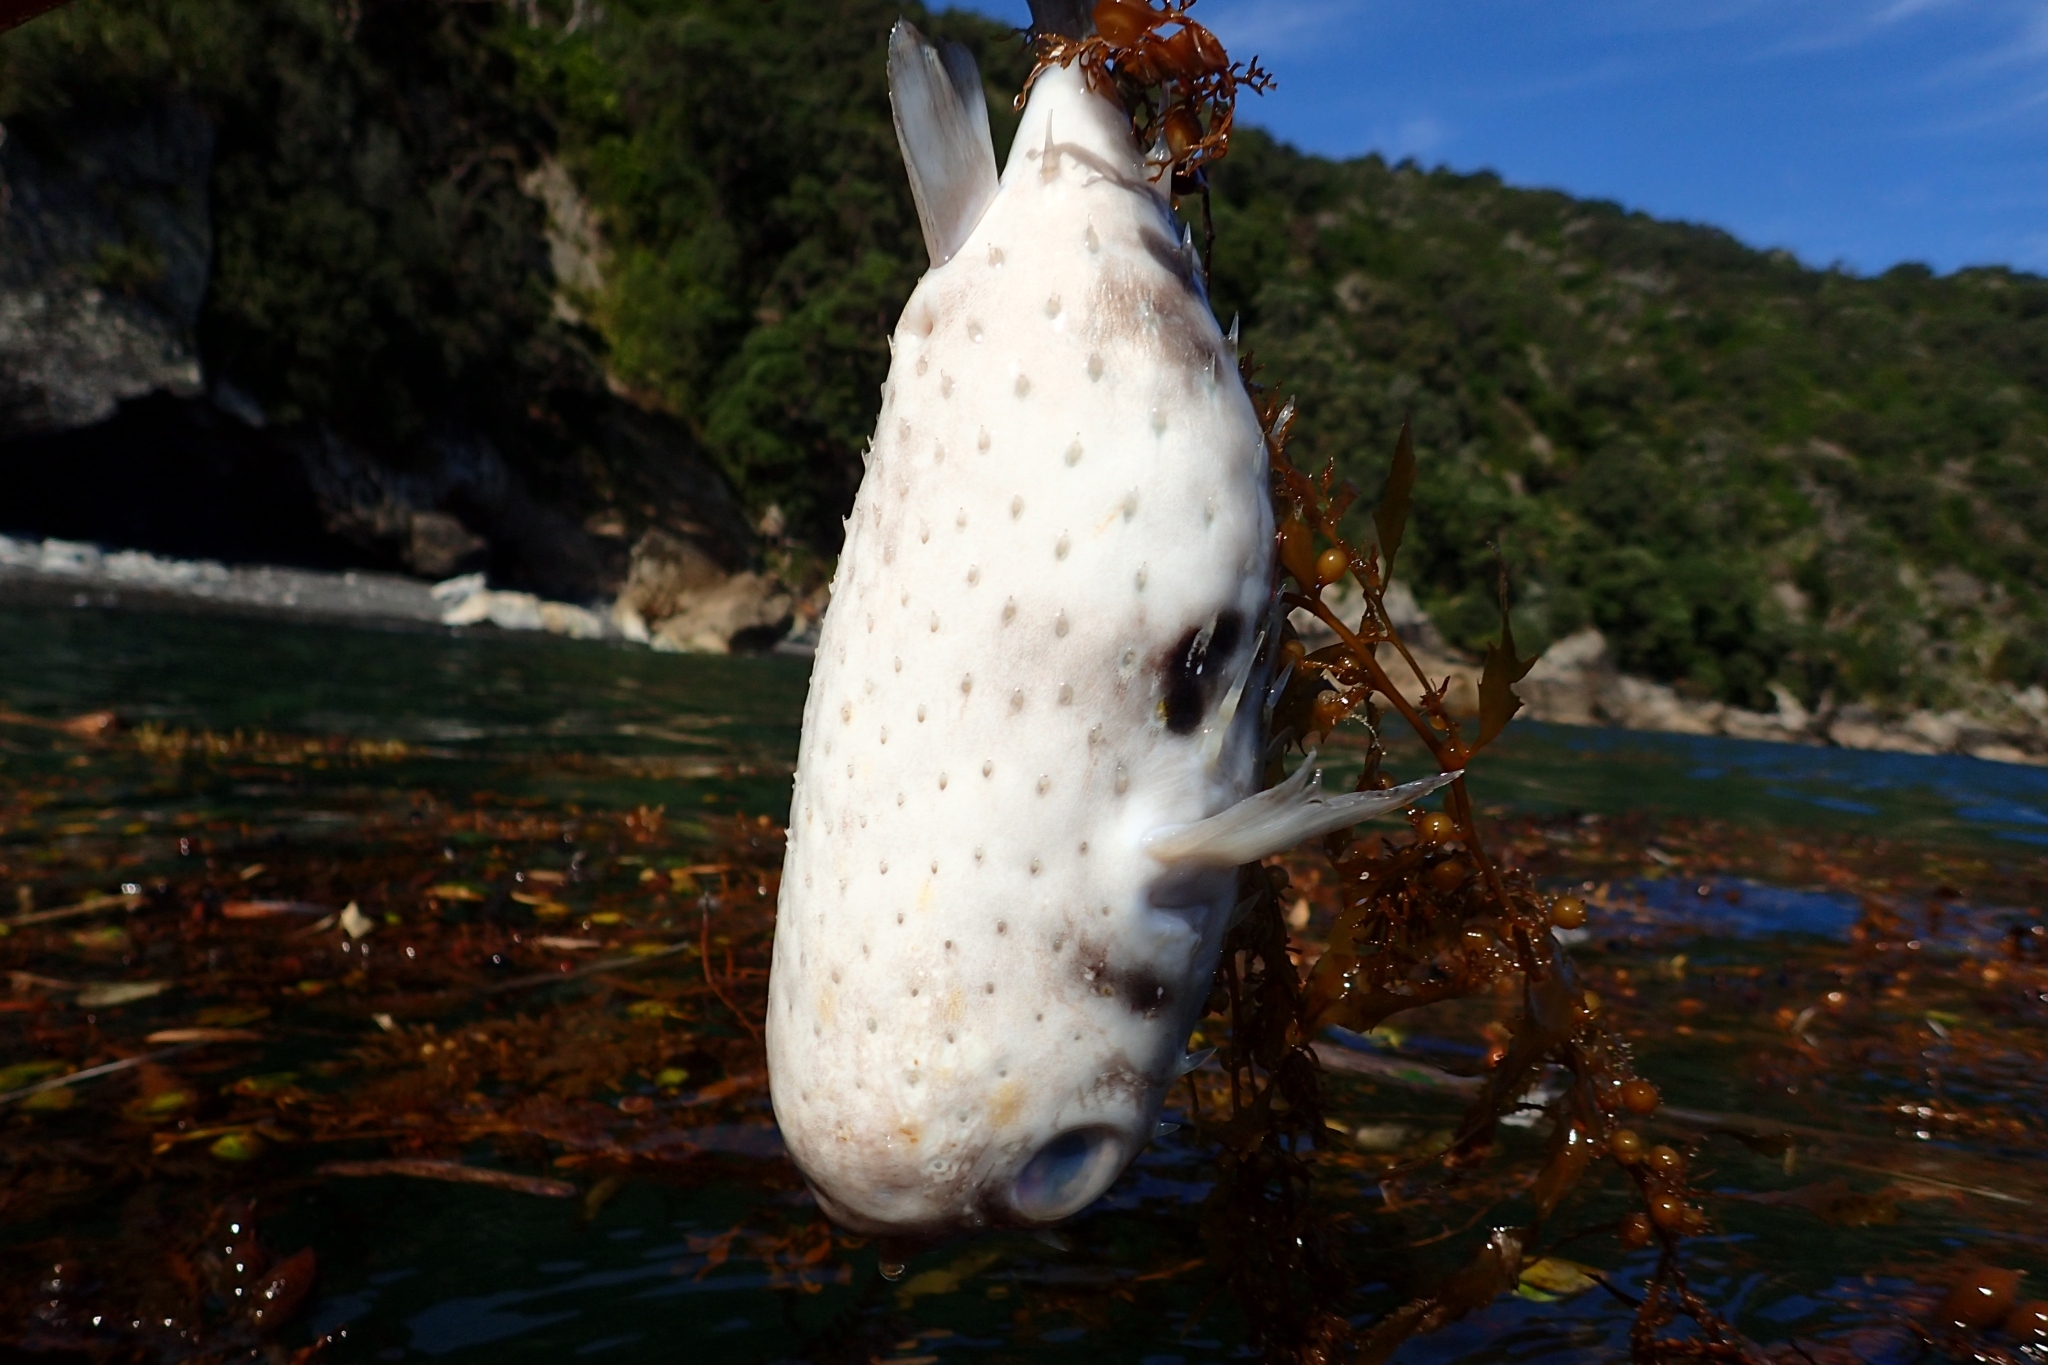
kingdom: Animalia
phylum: Chordata
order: Tetraodontiformes
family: Diodontidae
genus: Allomycterus
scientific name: Allomycterus pilatus
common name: No common name
